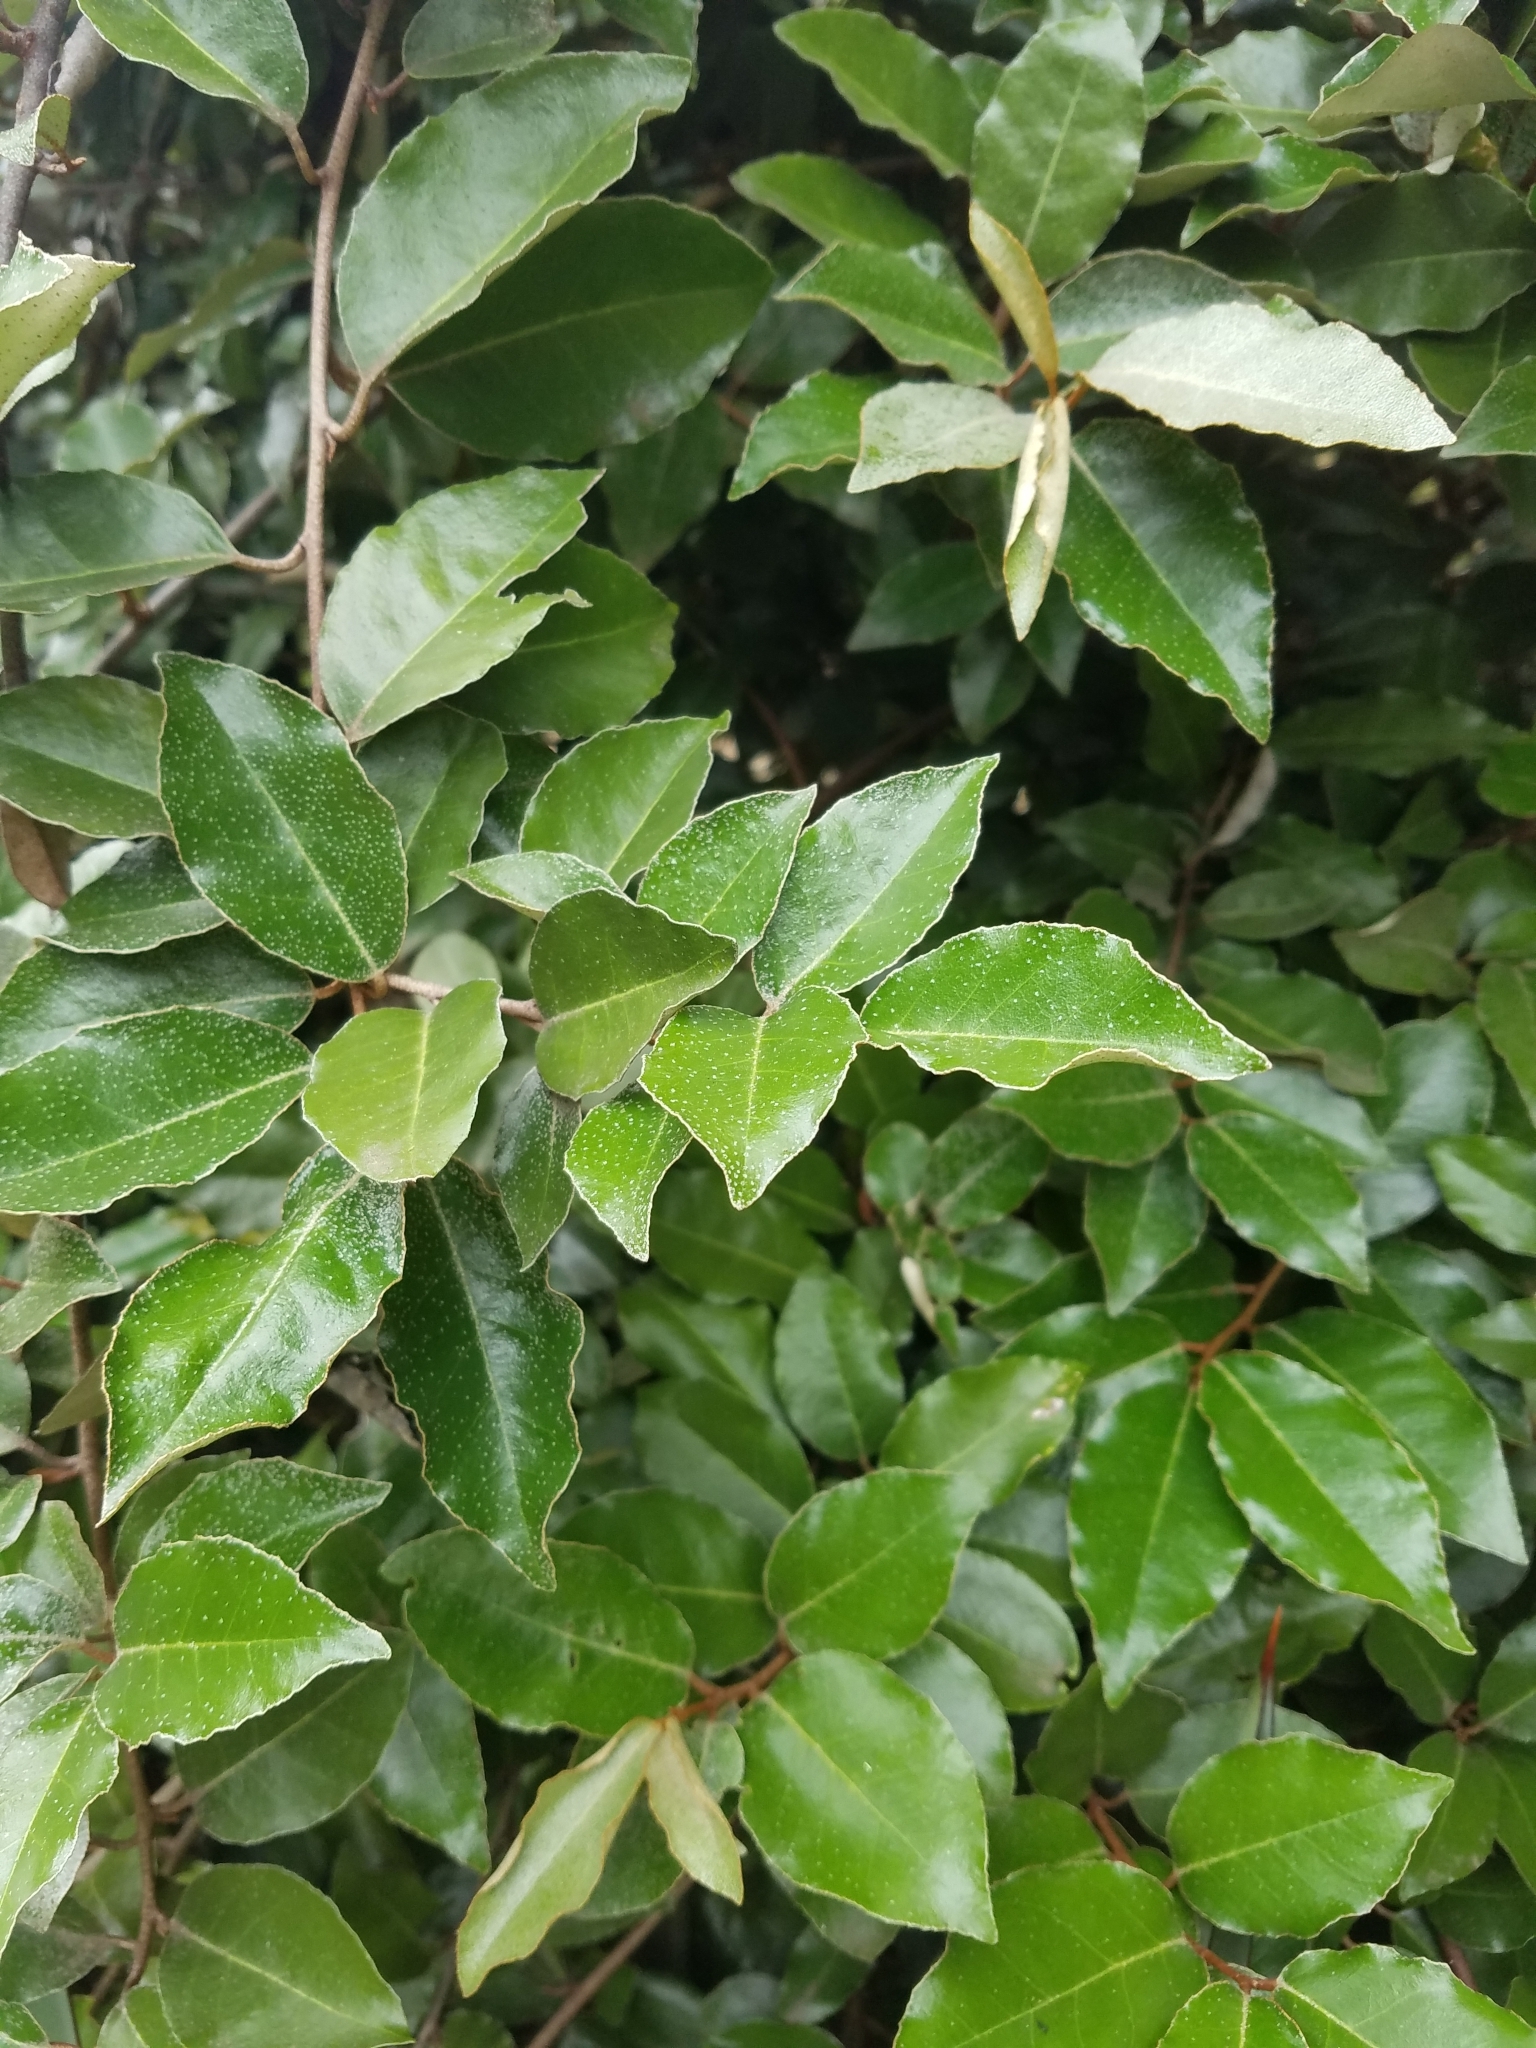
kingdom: Plantae
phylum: Tracheophyta
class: Magnoliopsida
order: Rosales
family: Elaeagnaceae
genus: Elaeagnus
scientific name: Elaeagnus pungens
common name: Spiny oleaster
